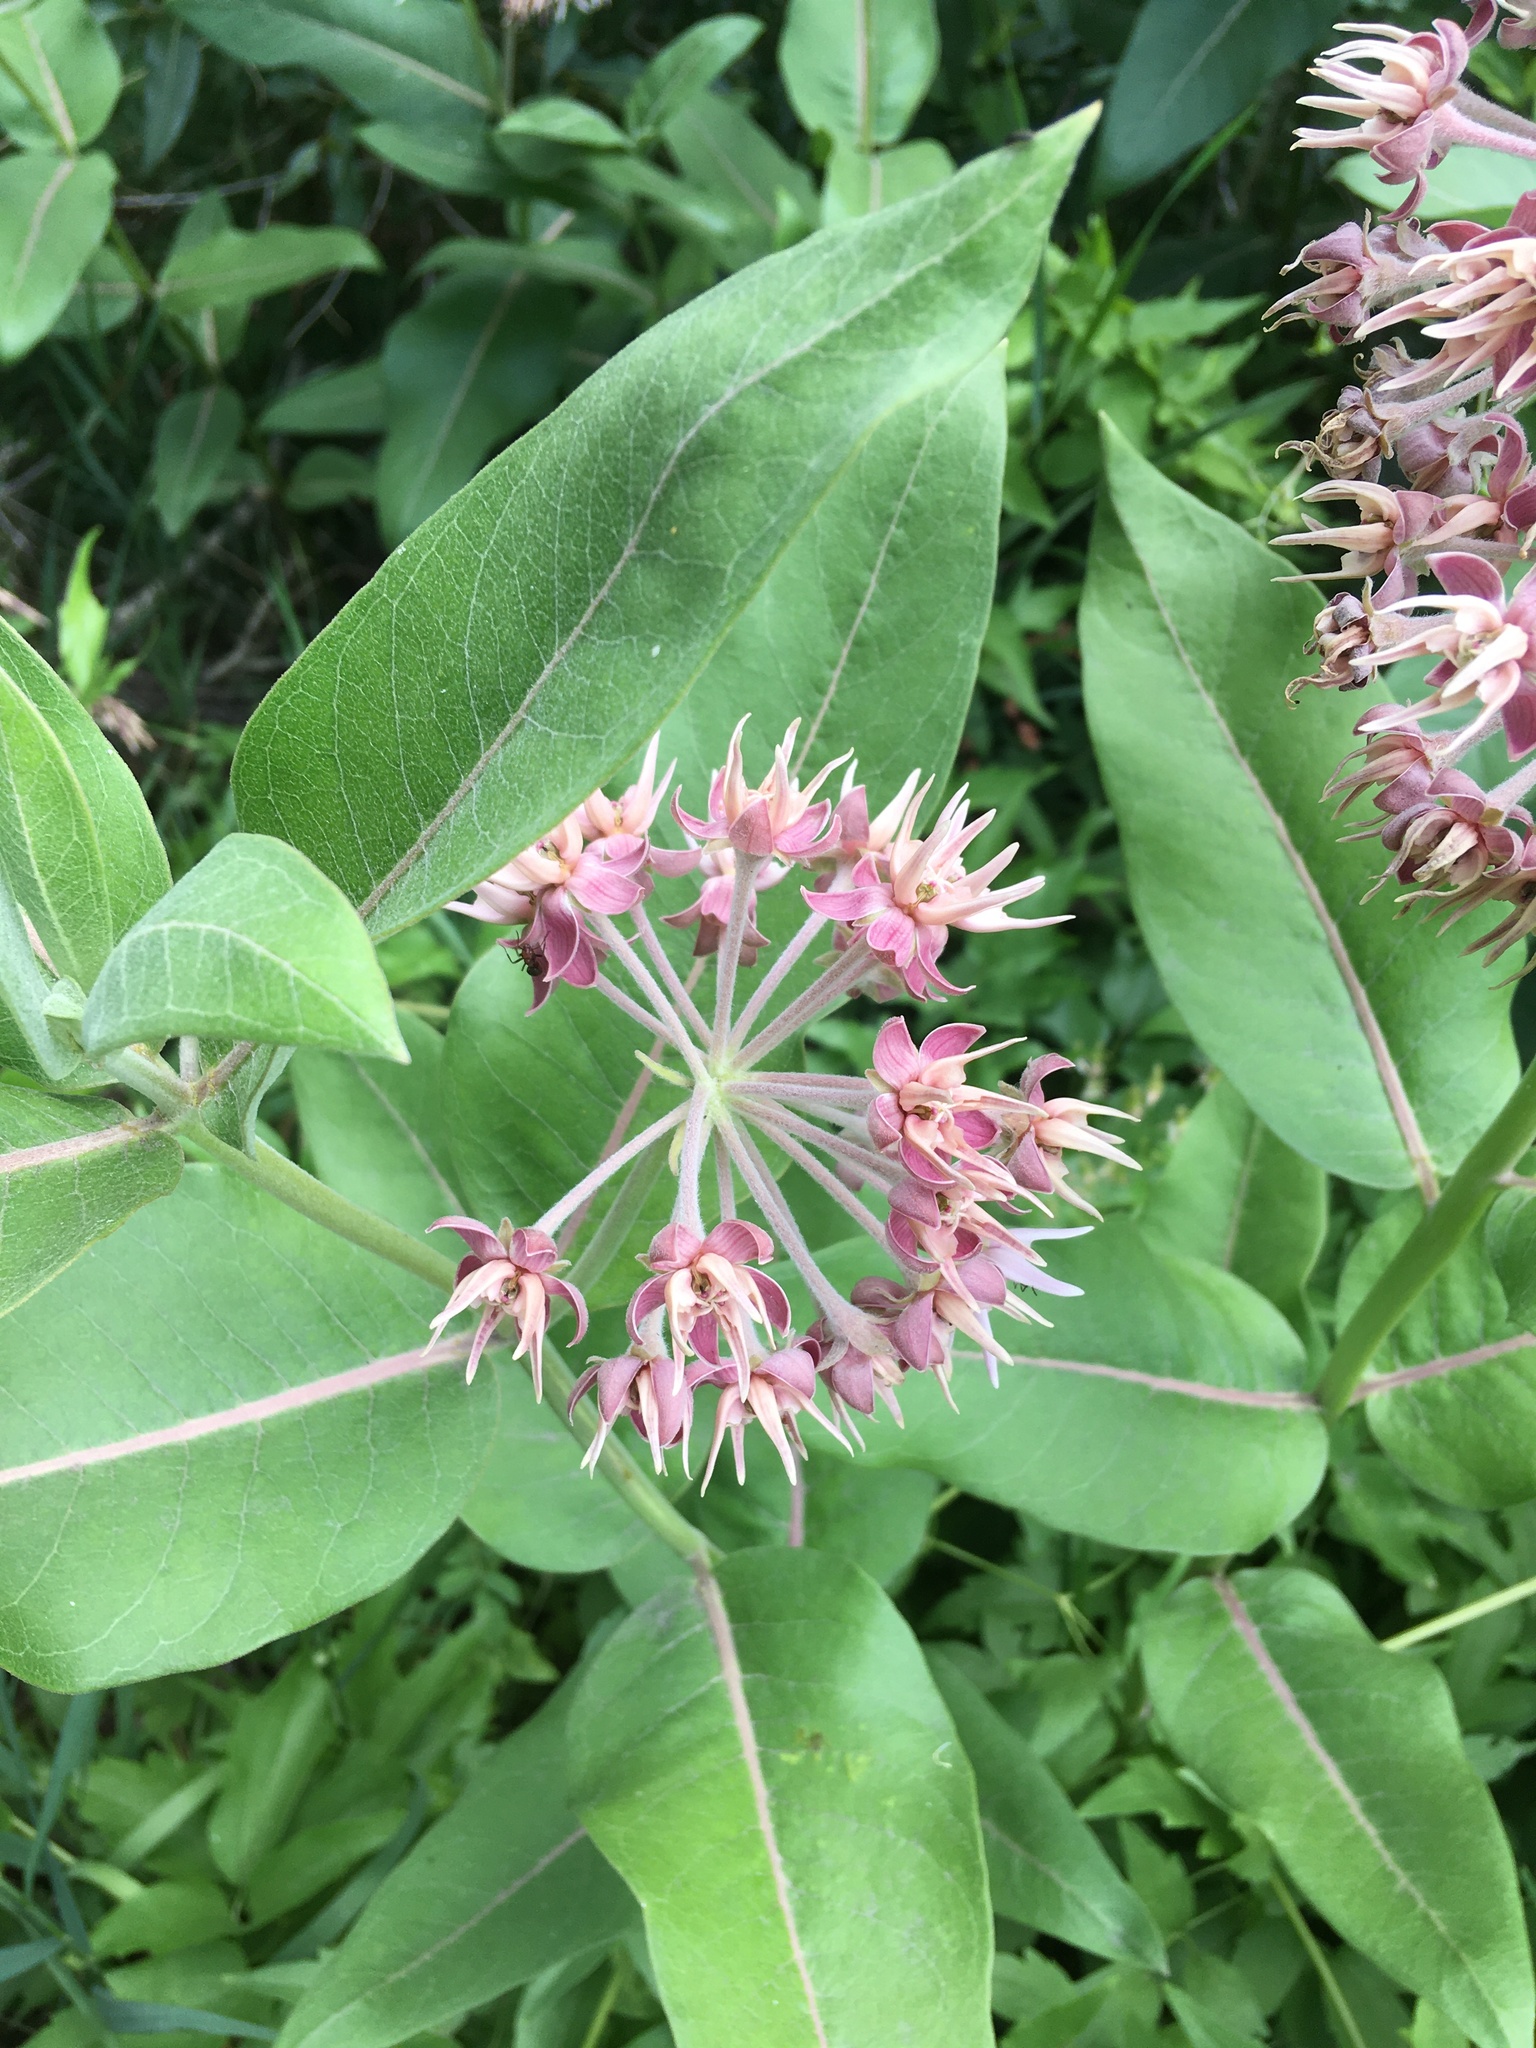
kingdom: Plantae
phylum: Tracheophyta
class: Magnoliopsida
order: Gentianales
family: Apocynaceae
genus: Asclepias
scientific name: Asclepias speciosa
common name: Showy milkweed
